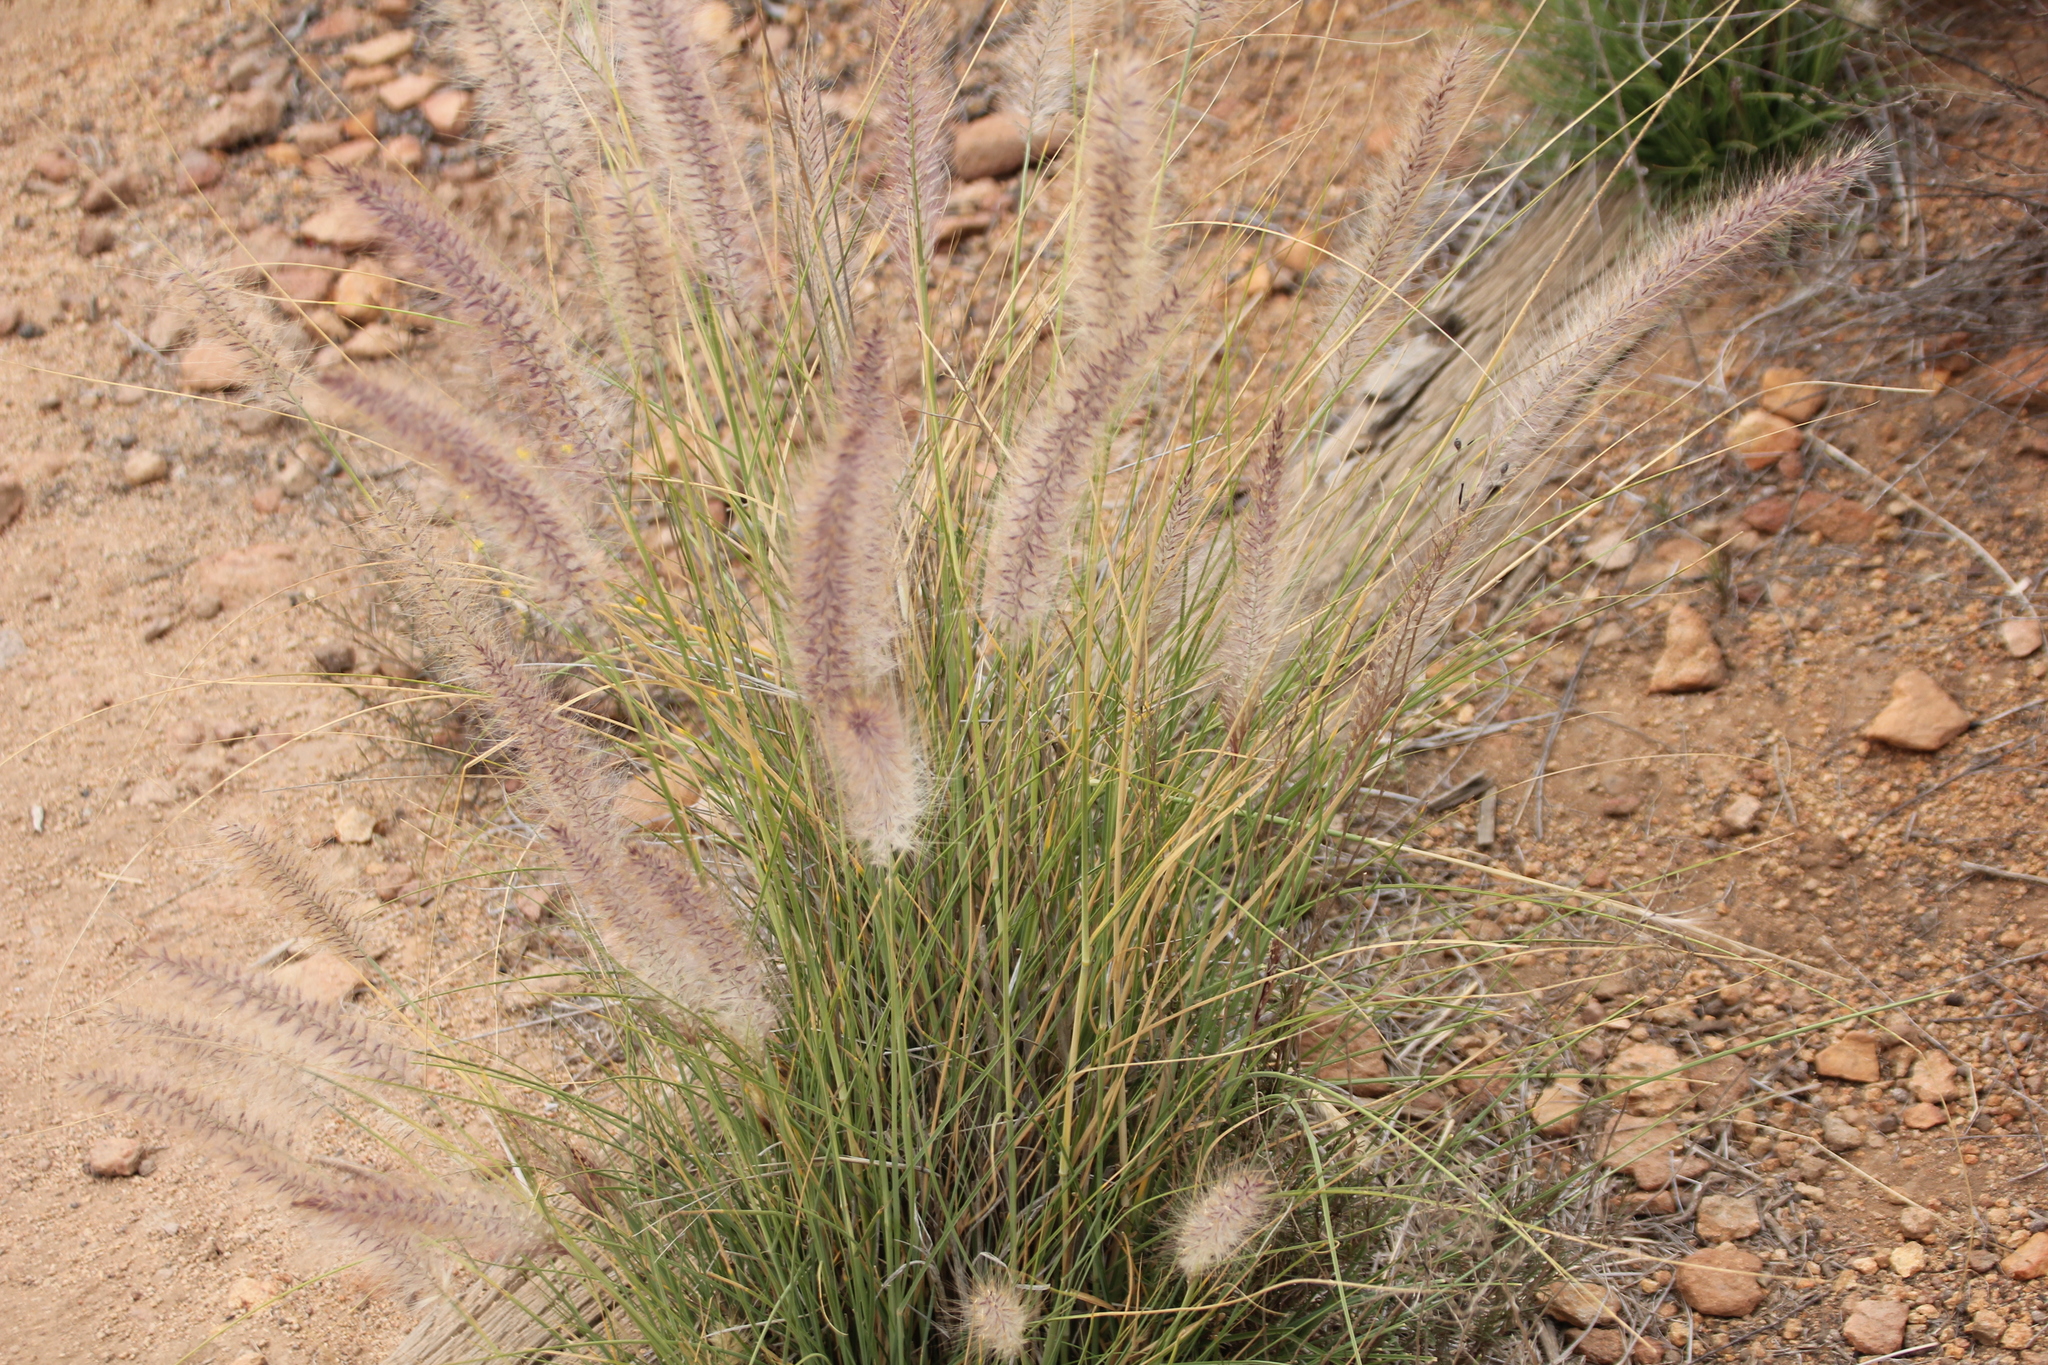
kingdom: Plantae
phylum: Tracheophyta
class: Liliopsida
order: Poales
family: Poaceae
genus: Cenchrus
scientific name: Cenchrus setaceus
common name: Crimson fountaingrass
